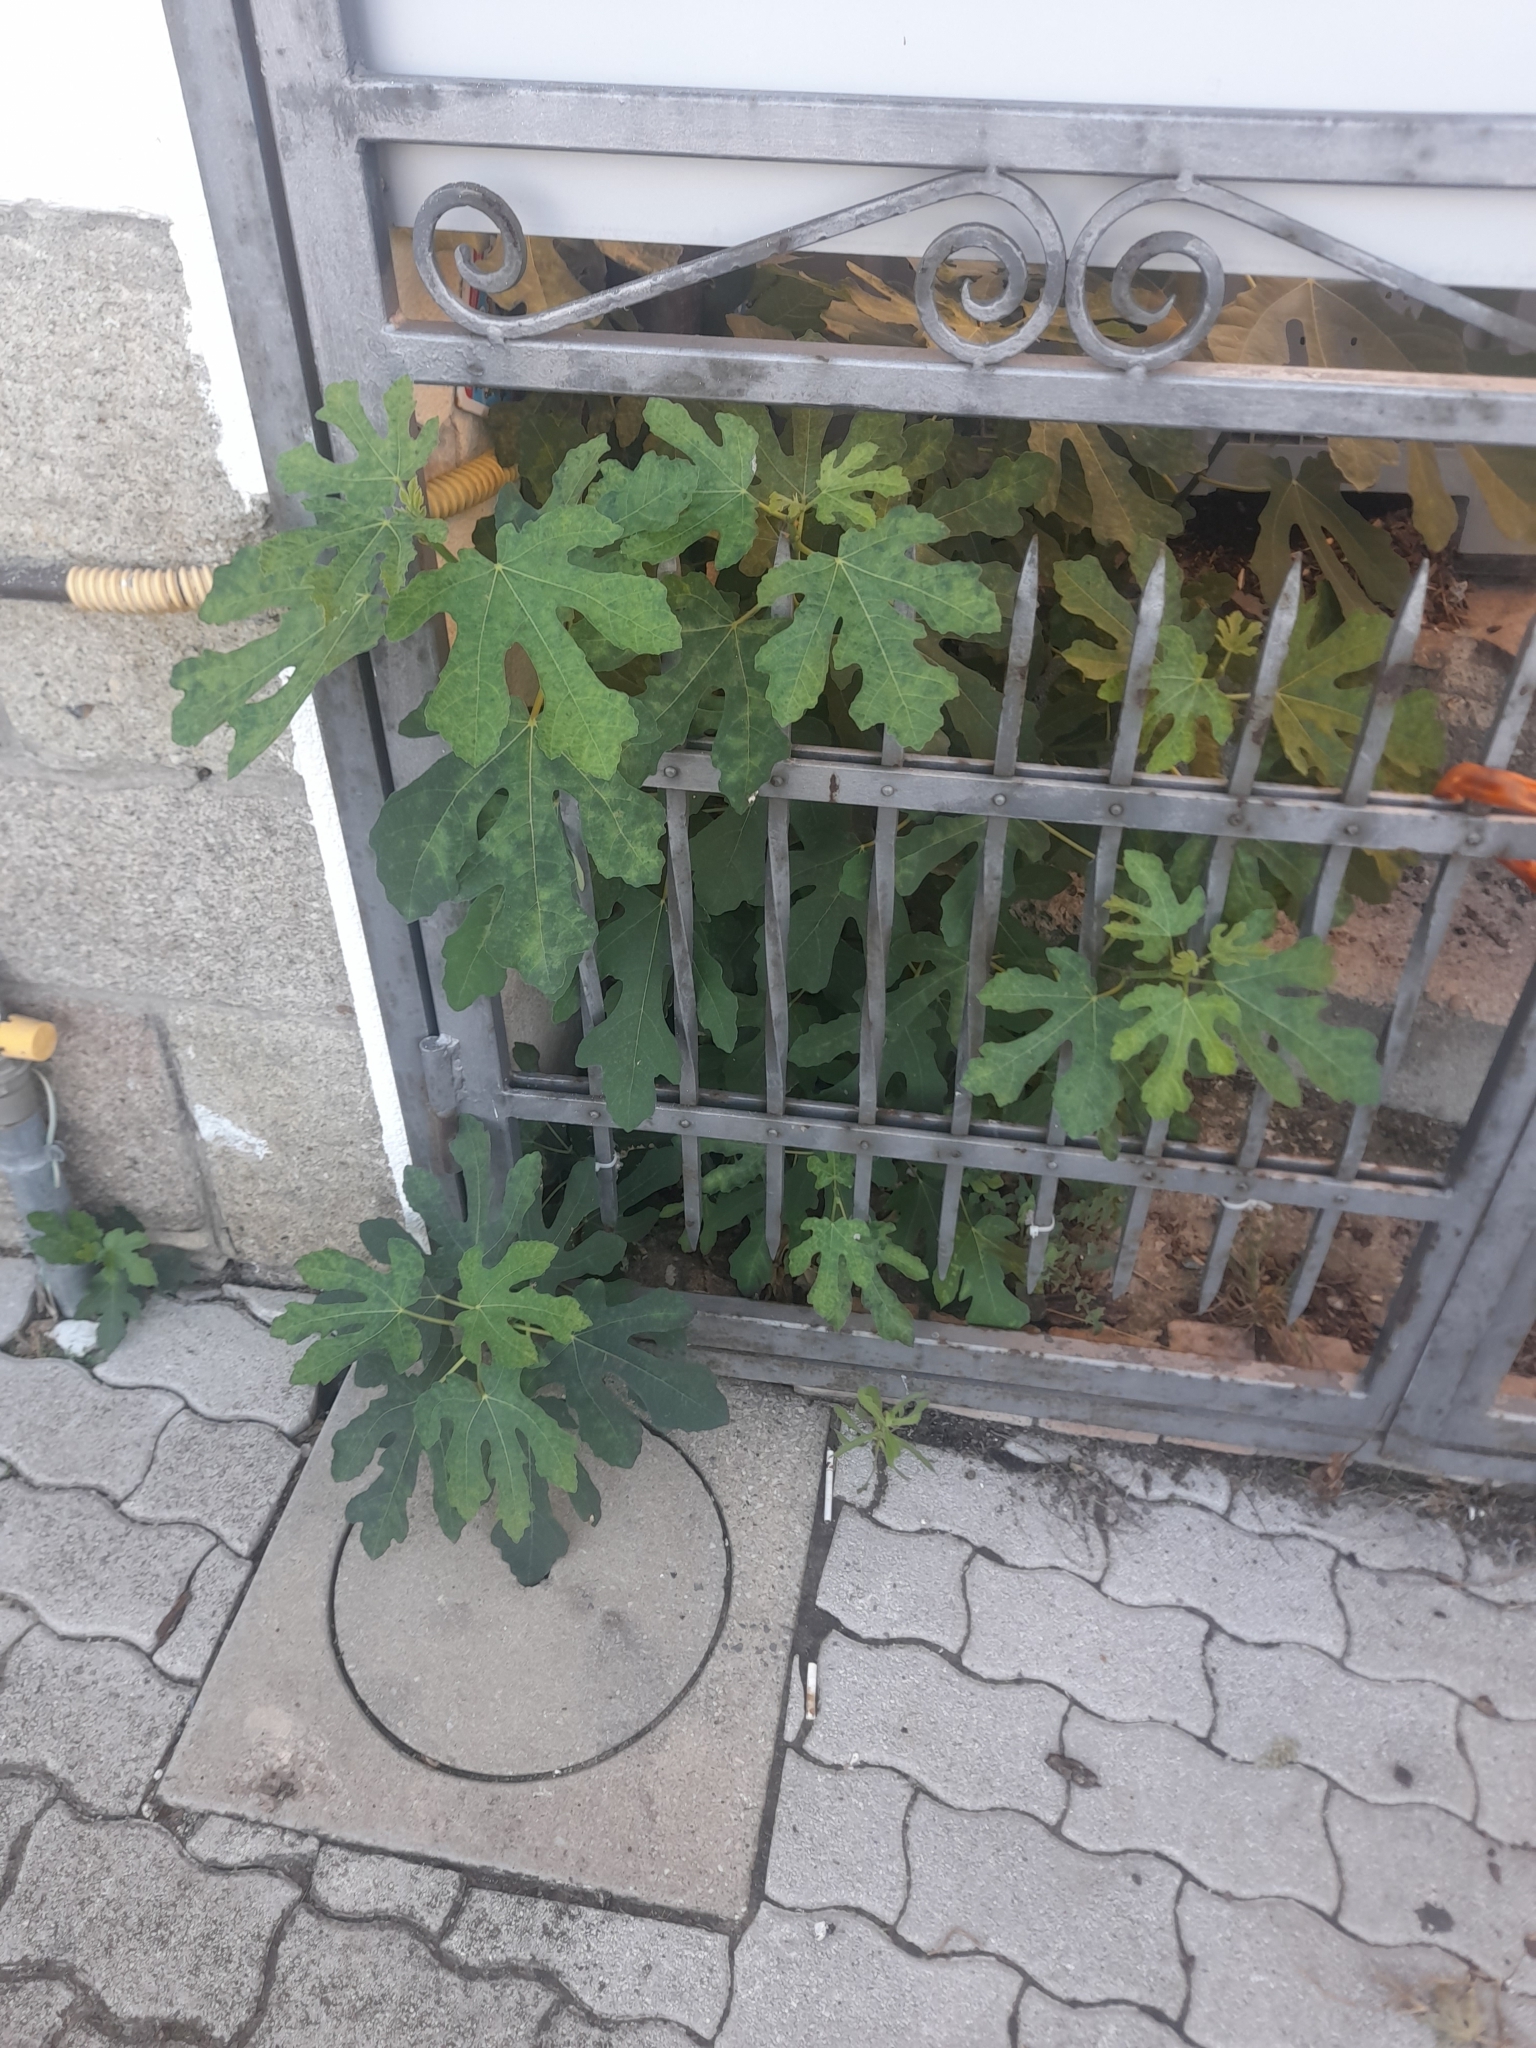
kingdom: Plantae
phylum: Tracheophyta
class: Magnoliopsida
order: Rosales
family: Moraceae
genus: Ficus
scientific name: Ficus carica
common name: Fig
